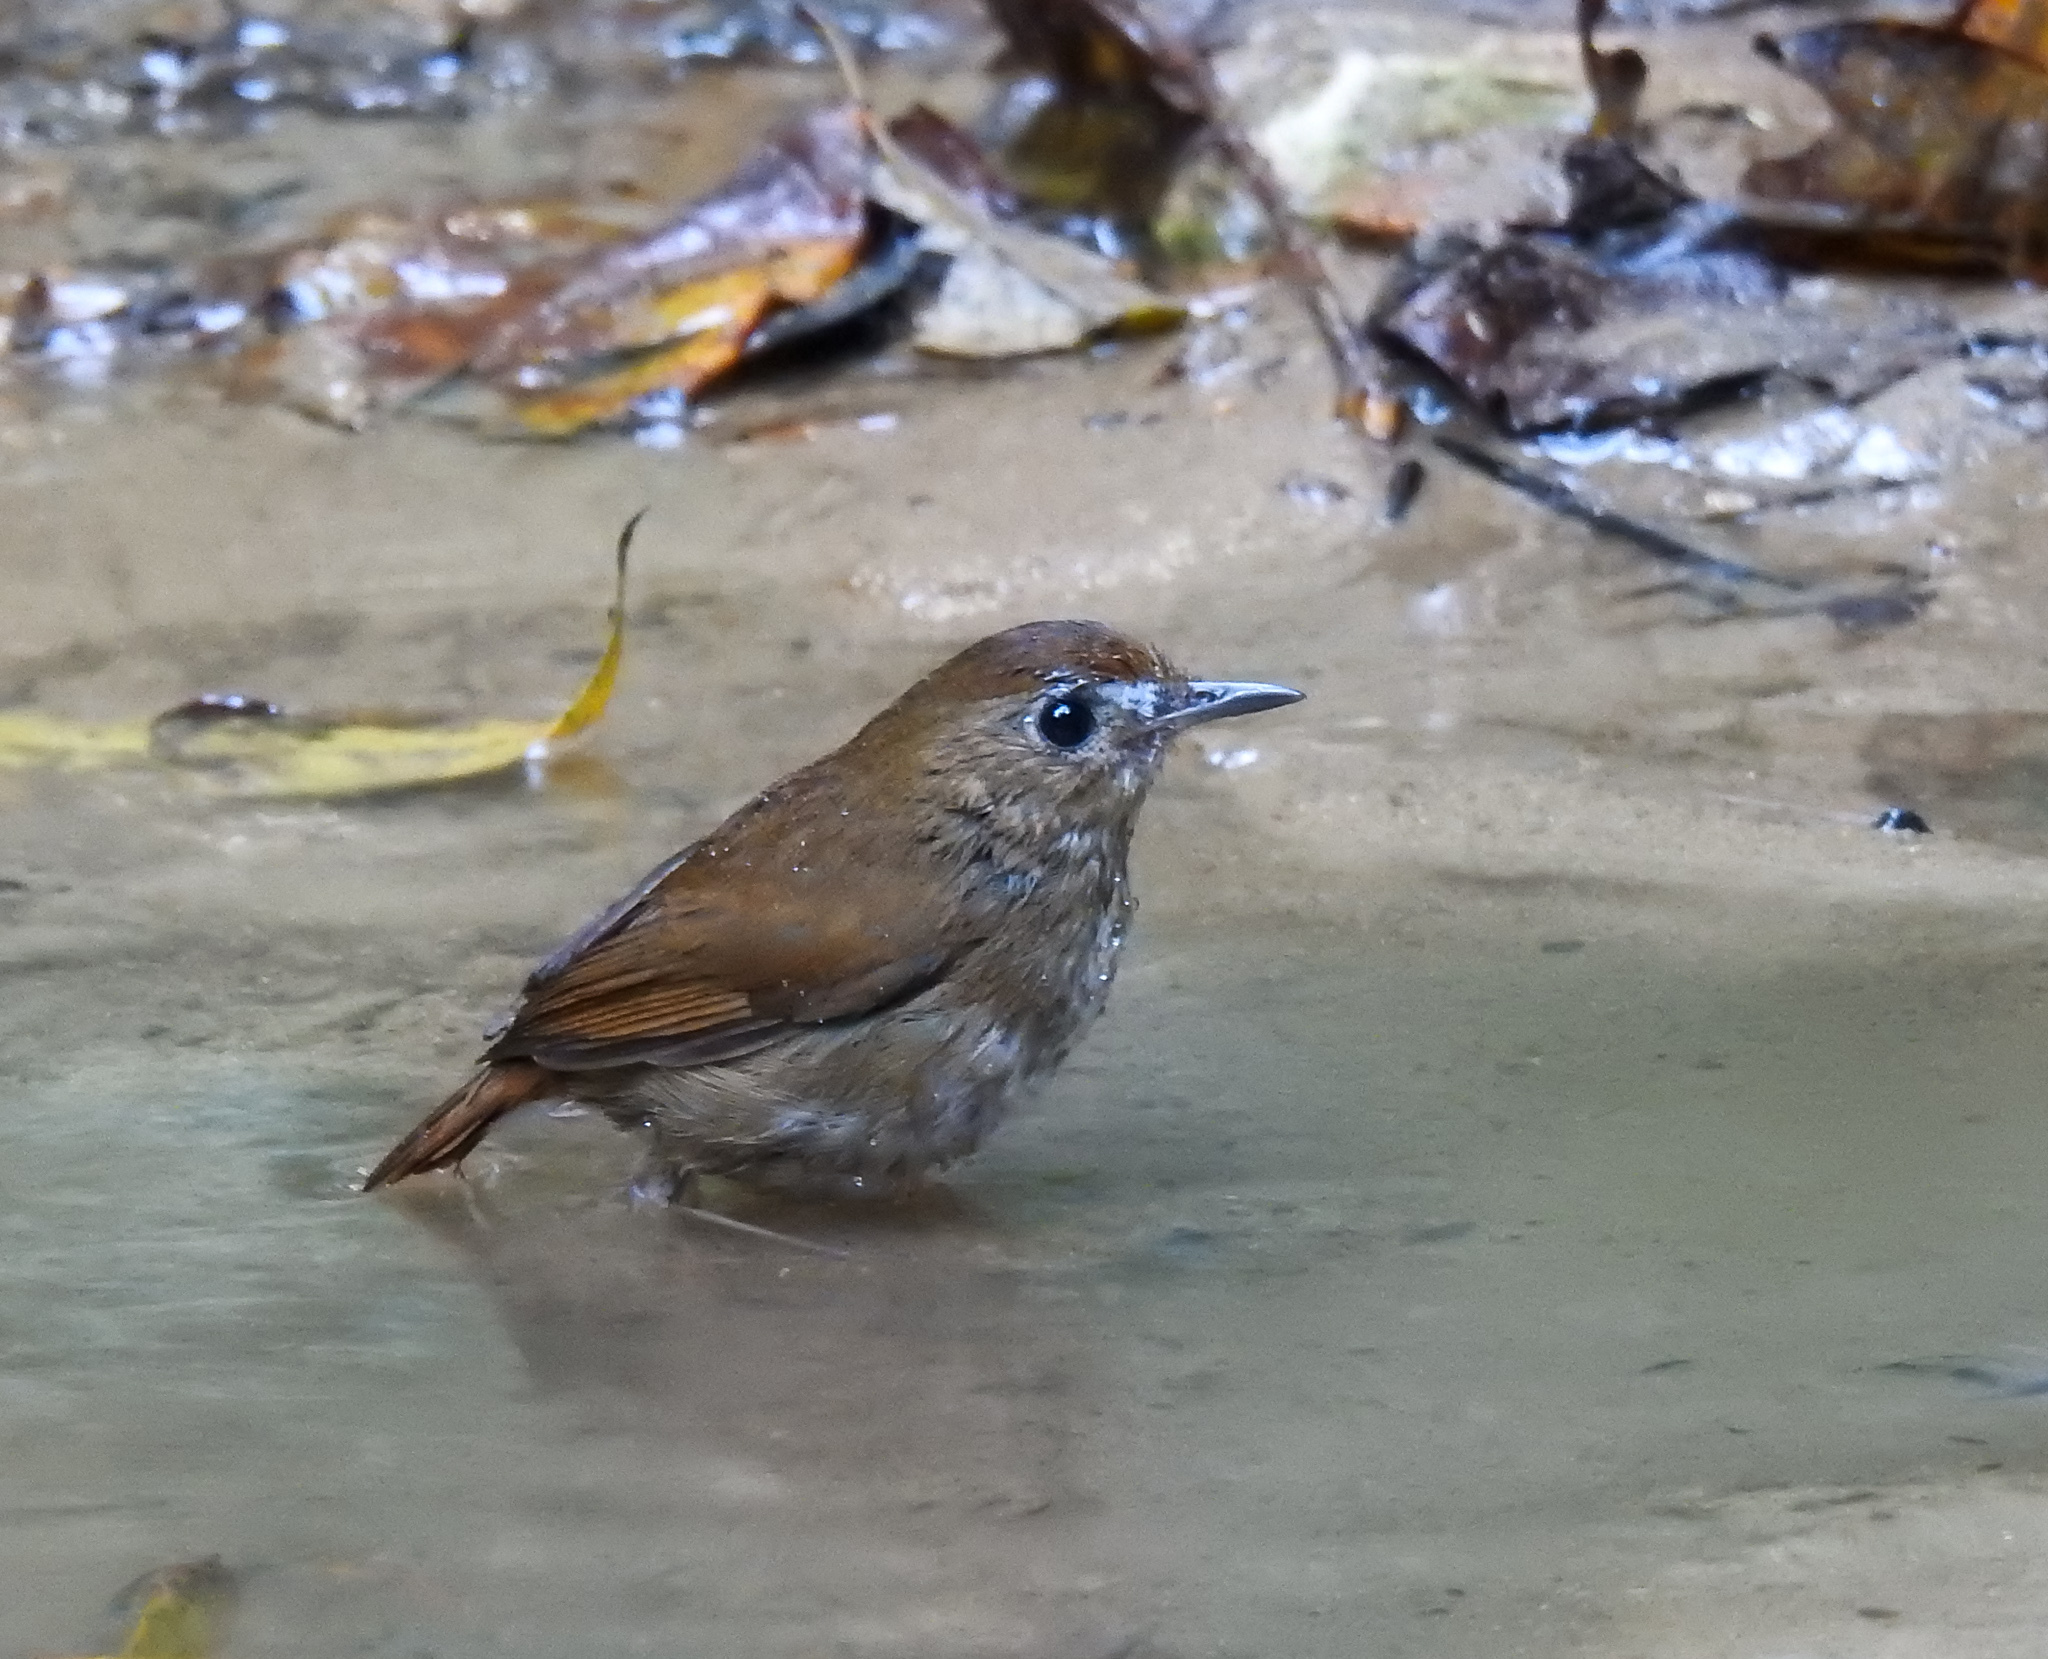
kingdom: Animalia
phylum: Chordata
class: Aves
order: Passeriformes
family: Muscicapidae
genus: Brachypteryx
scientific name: Brachypteryx leucophris
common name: Lesser shortwing
